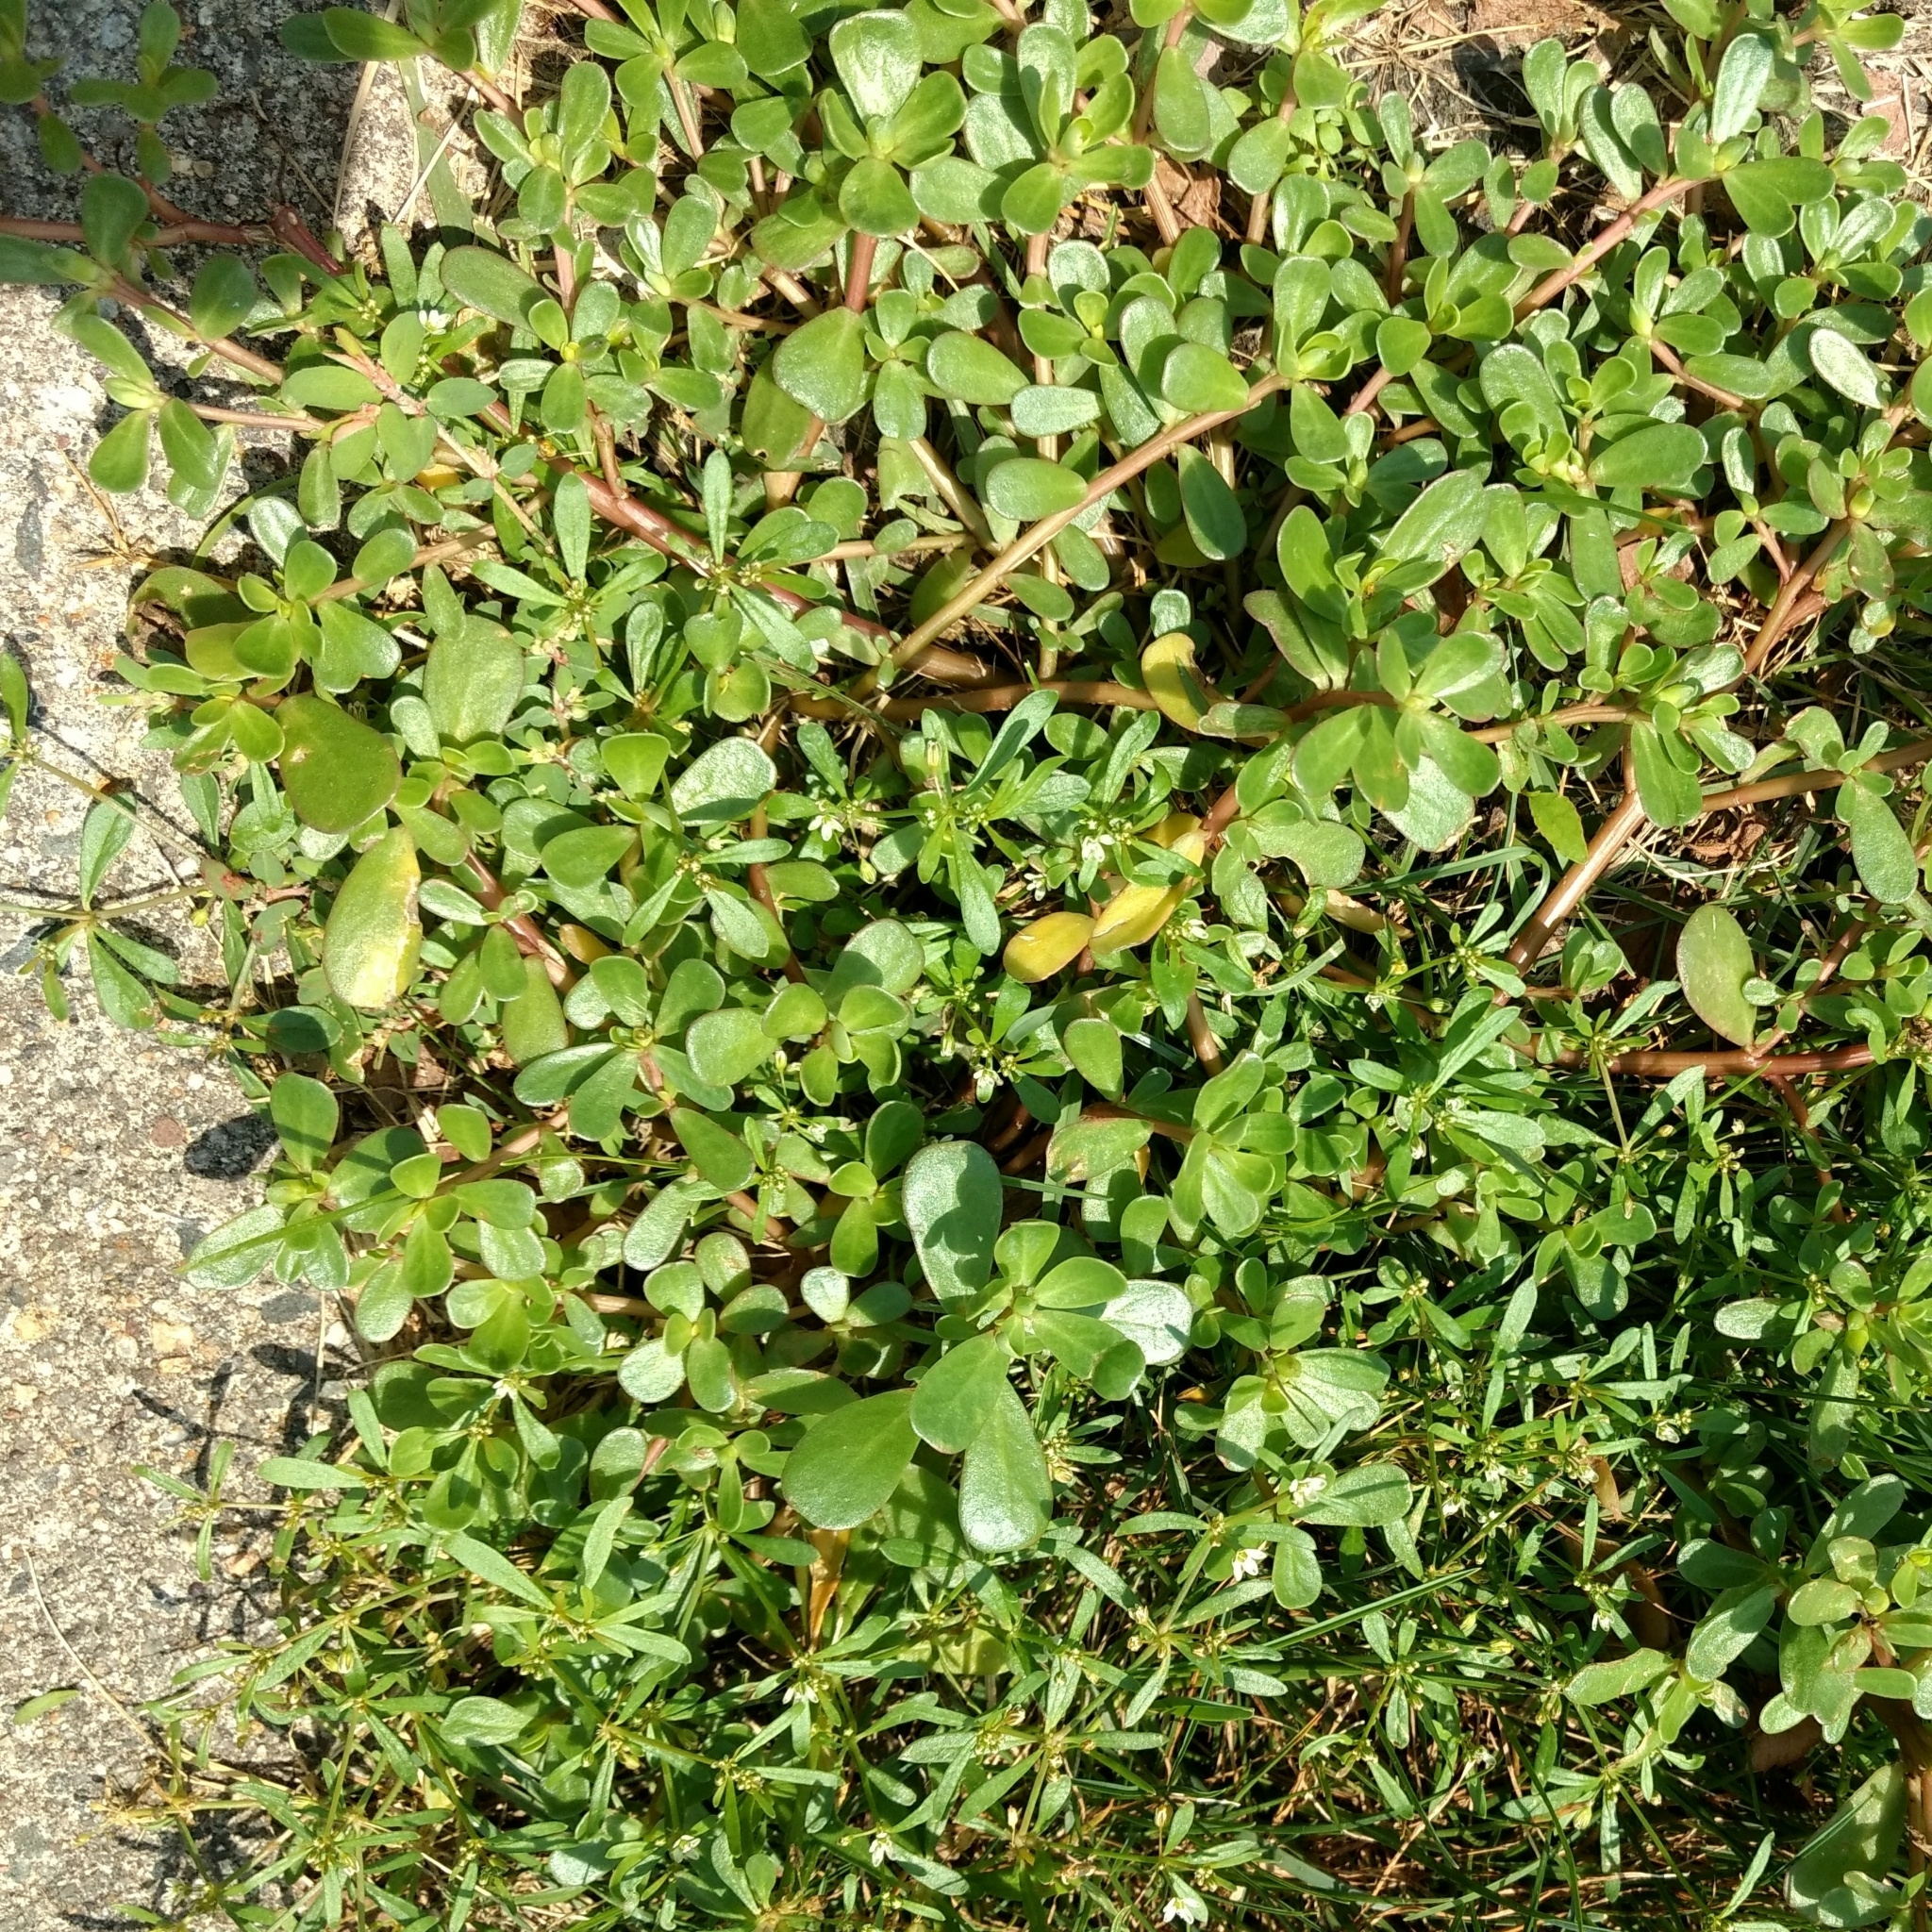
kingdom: Plantae
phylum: Tracheophyta
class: Magnoliopsida
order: Caryophyllales
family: Portulacaceae
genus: Portulaca
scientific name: Portulaca oleracea
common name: Common purslane
